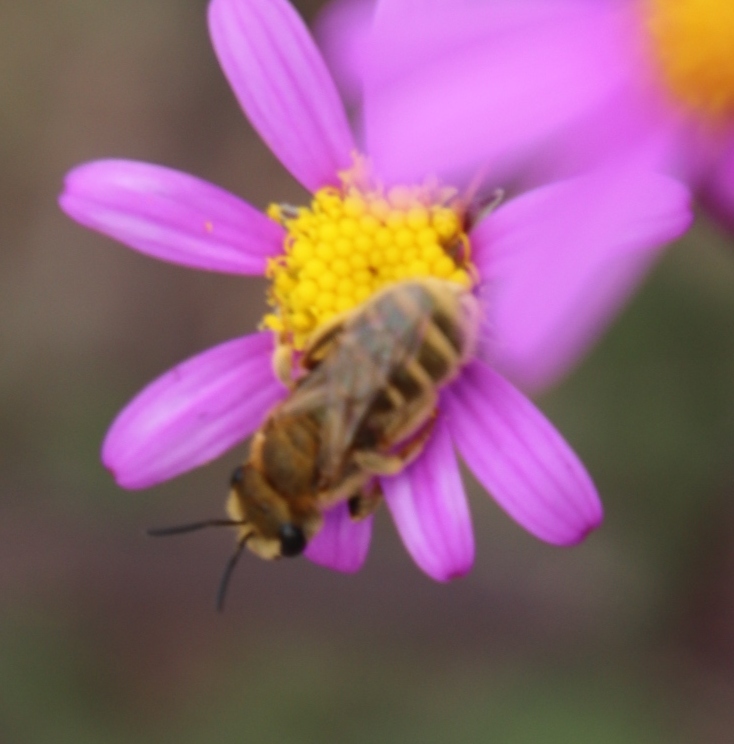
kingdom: Plantae
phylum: Tracheophyta
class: Magnoliopsida
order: Asterales
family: Asteraceae
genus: Senecio
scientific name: Senecio arenarius
